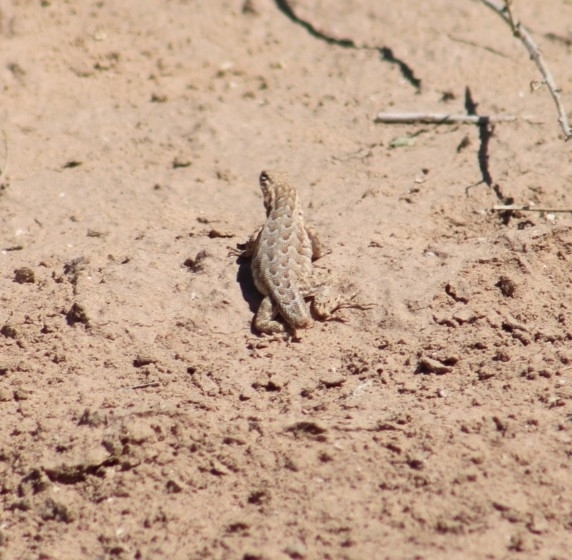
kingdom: Animalia
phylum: Chordata
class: Squamata
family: Phrynosomatidae
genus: Uta
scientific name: Uta stansburiana
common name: Side-blotched lizard
